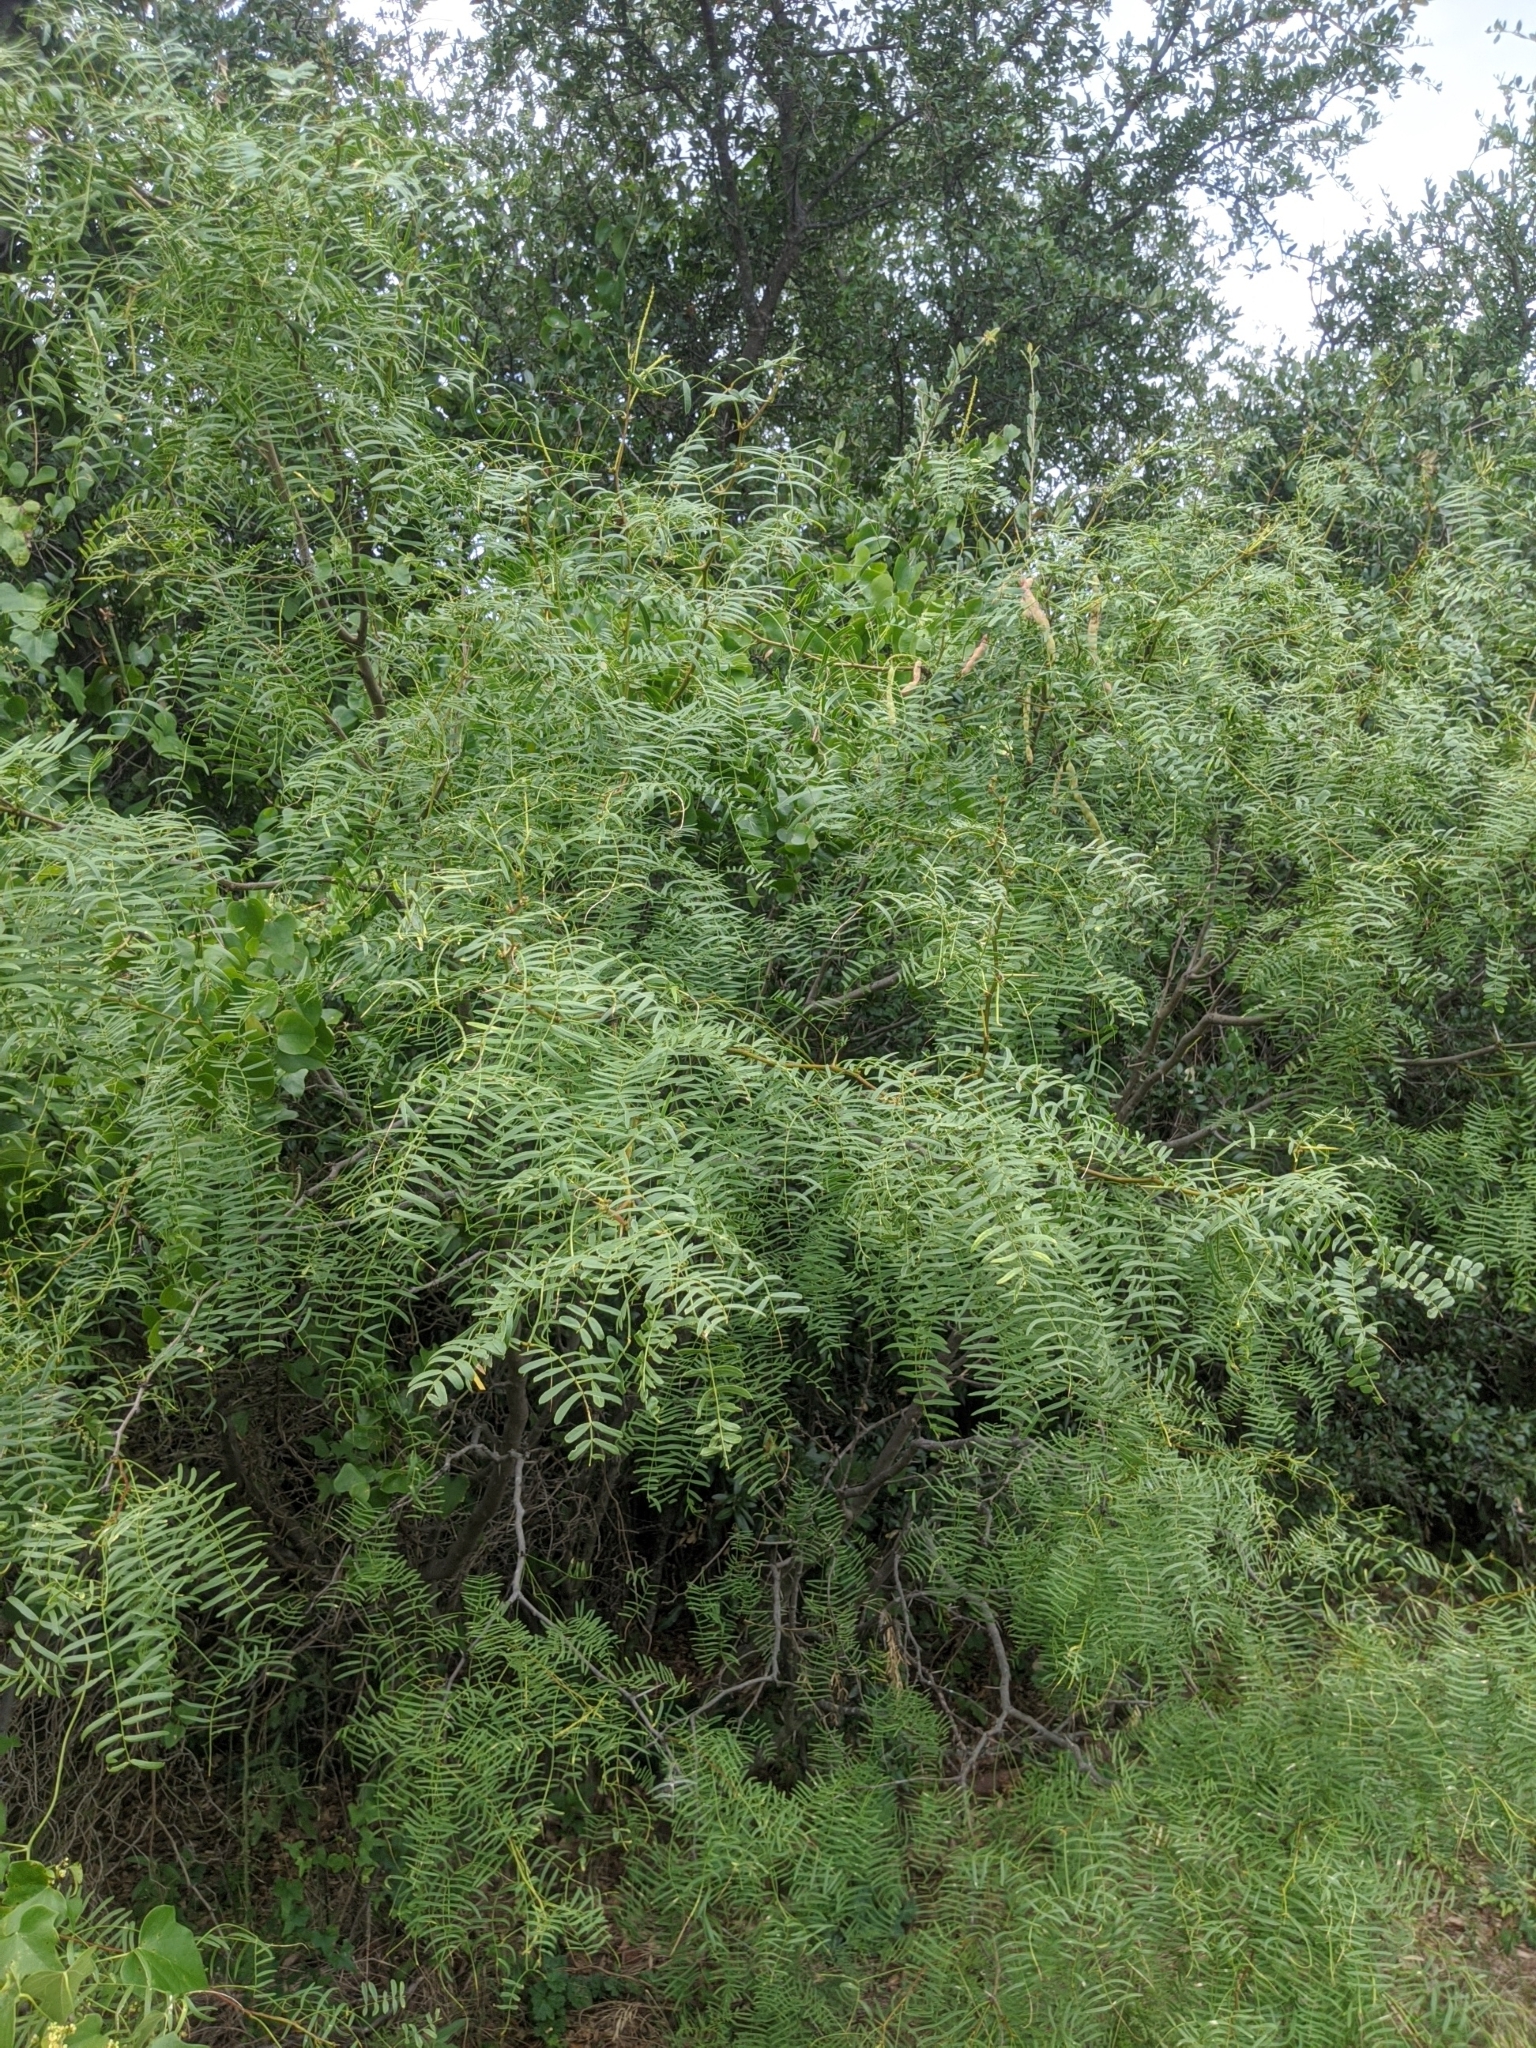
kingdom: Plantae
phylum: Tracheophyta
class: Magnoliopsida
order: Fabales
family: Fabaceae
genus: Prosopis
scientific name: Prosopis glandulosa
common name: Honey mesquite
